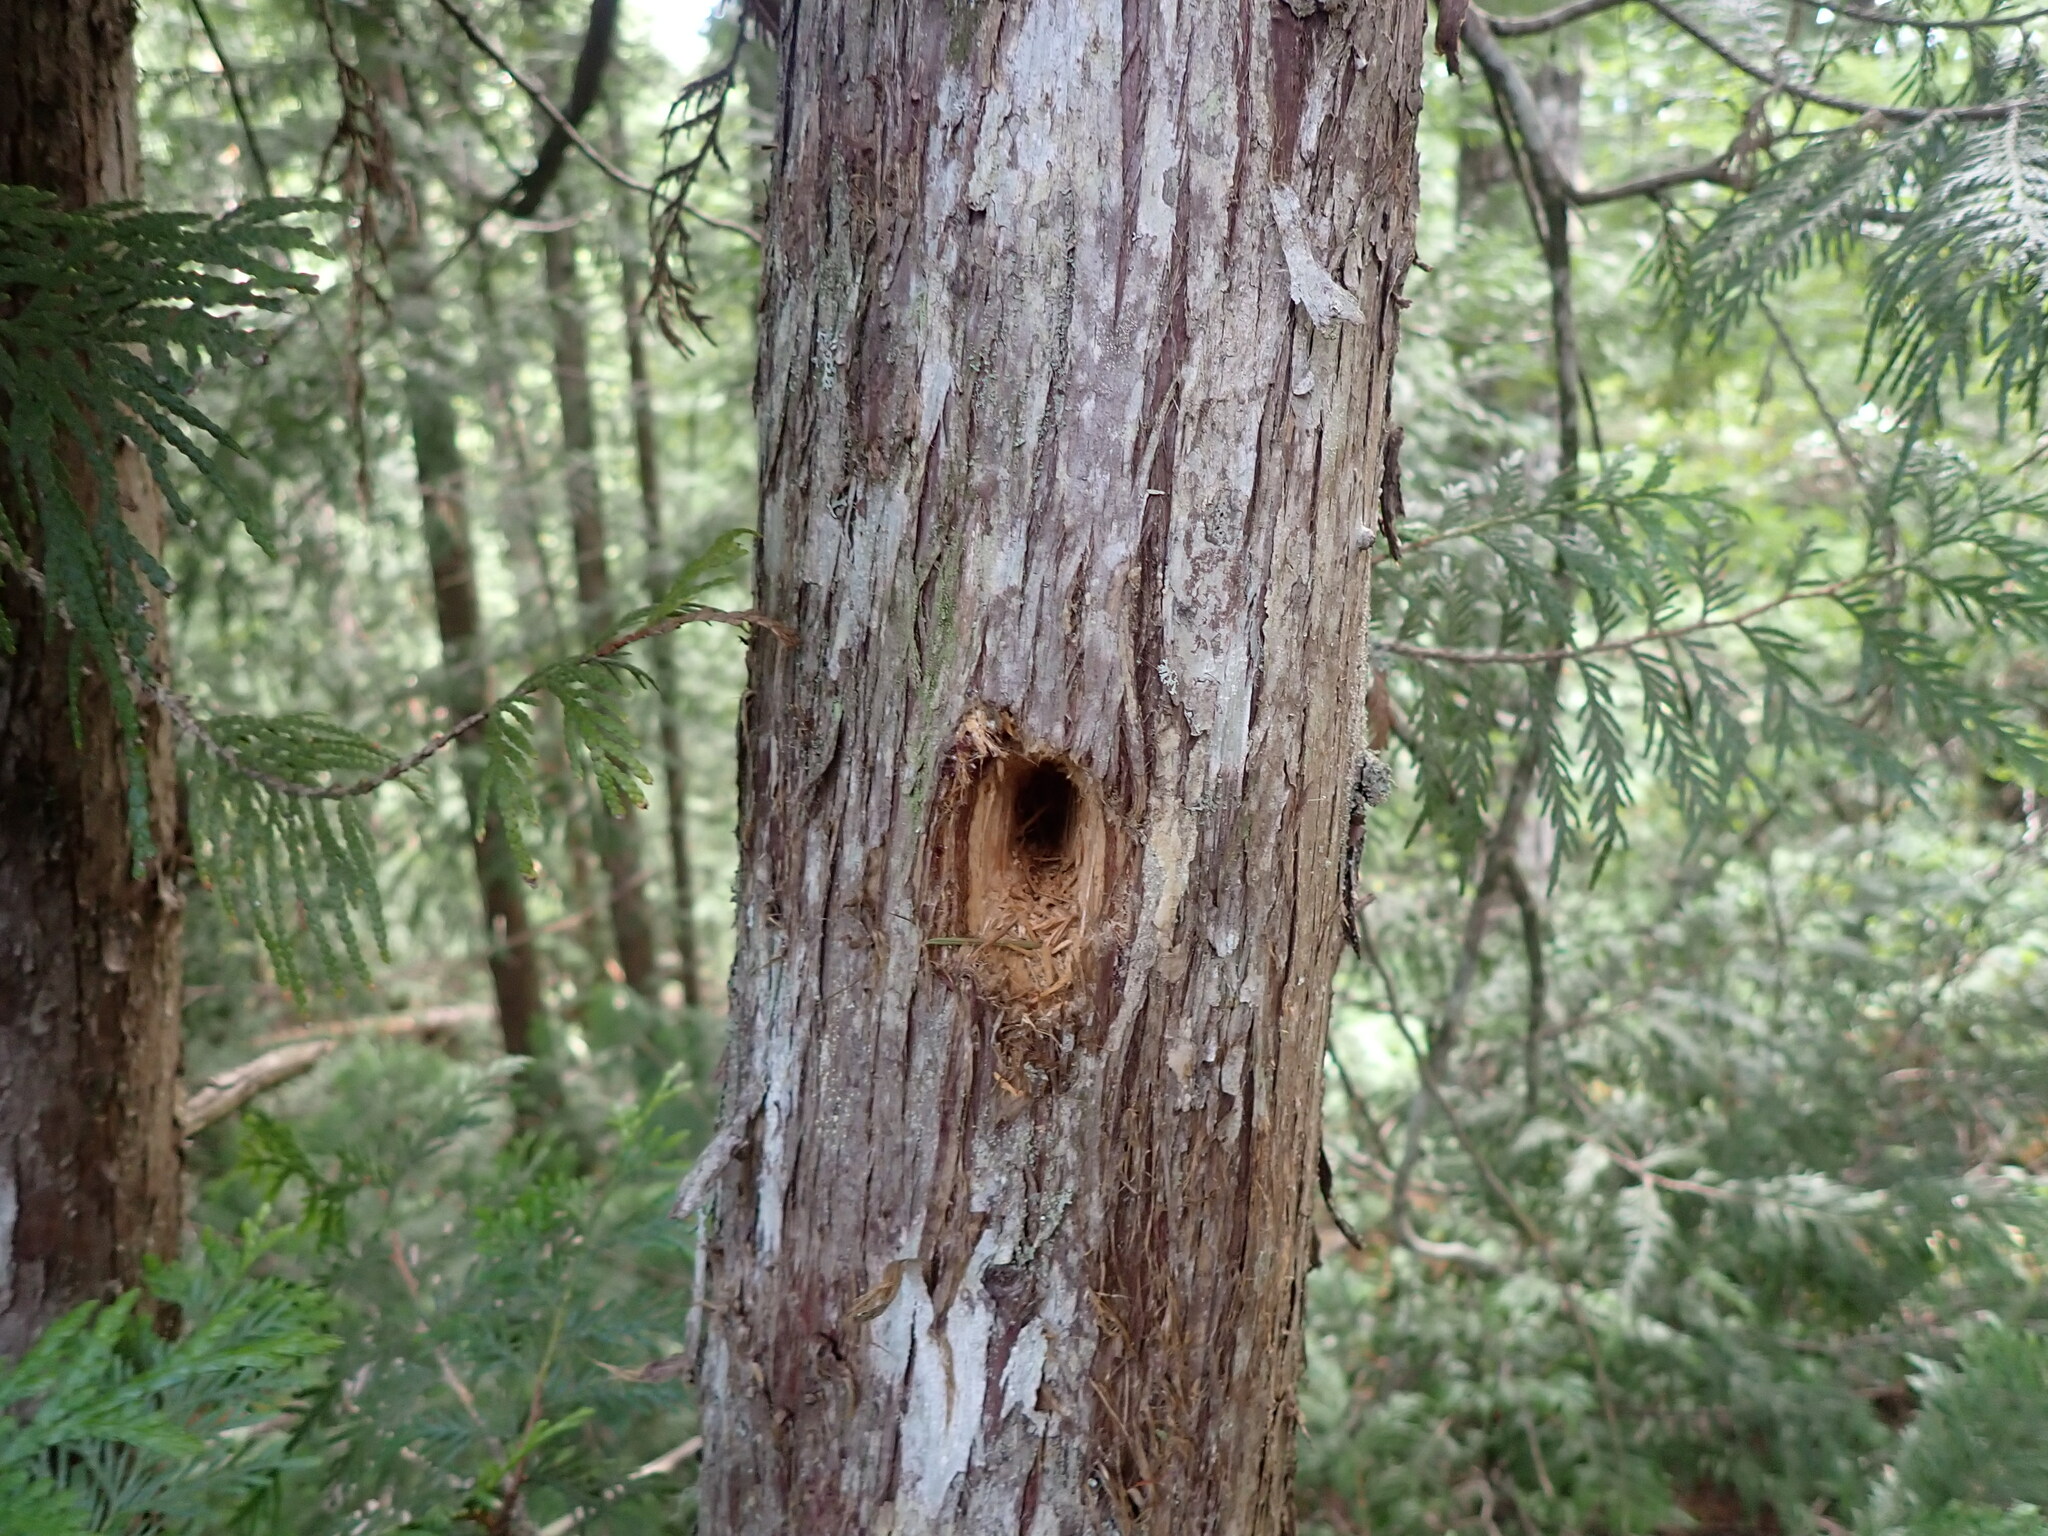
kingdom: Animalia
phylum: Chordata
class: Aves
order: Piciformes
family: Picidae
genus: Dryocopus
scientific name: Dryocopus pileatus
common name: Pileated woodpecker
